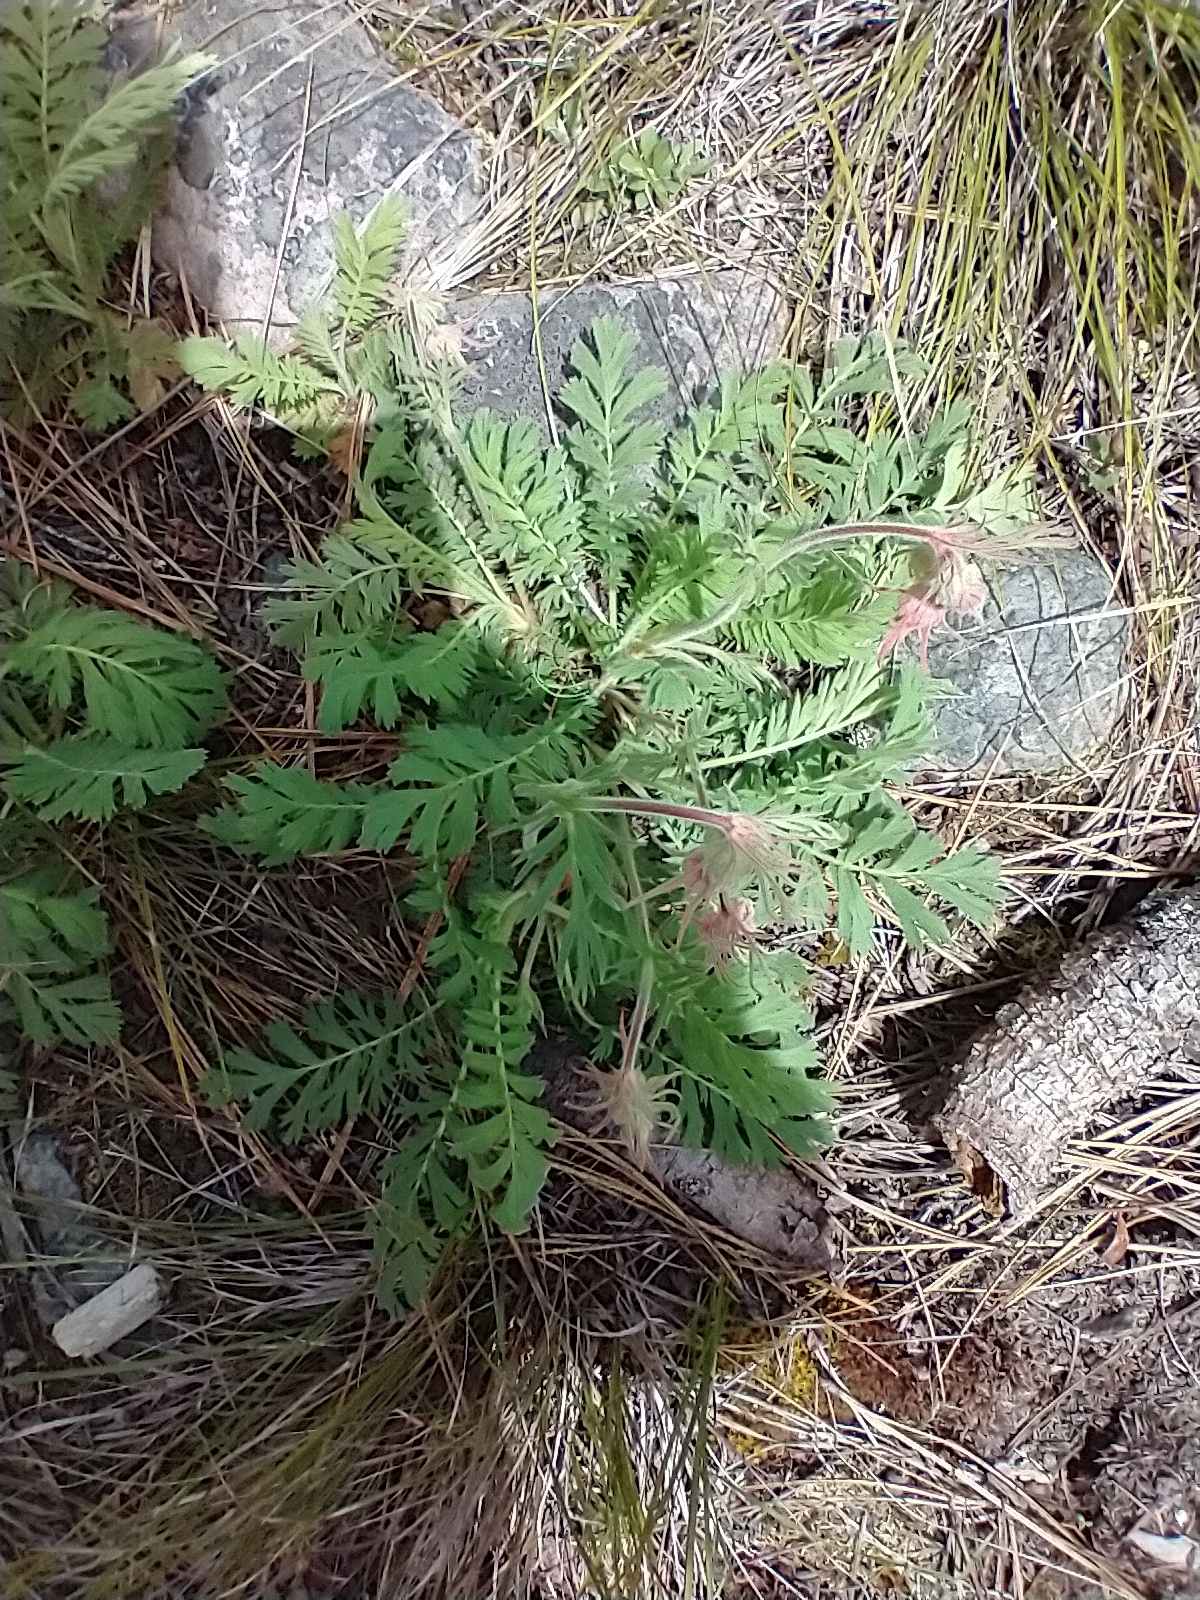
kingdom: Plantae
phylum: Tracheophyta
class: Magnoliopsida
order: Rosales
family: Rosaceae
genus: Geum
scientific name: Geum triflorum
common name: Old man's whiskers
